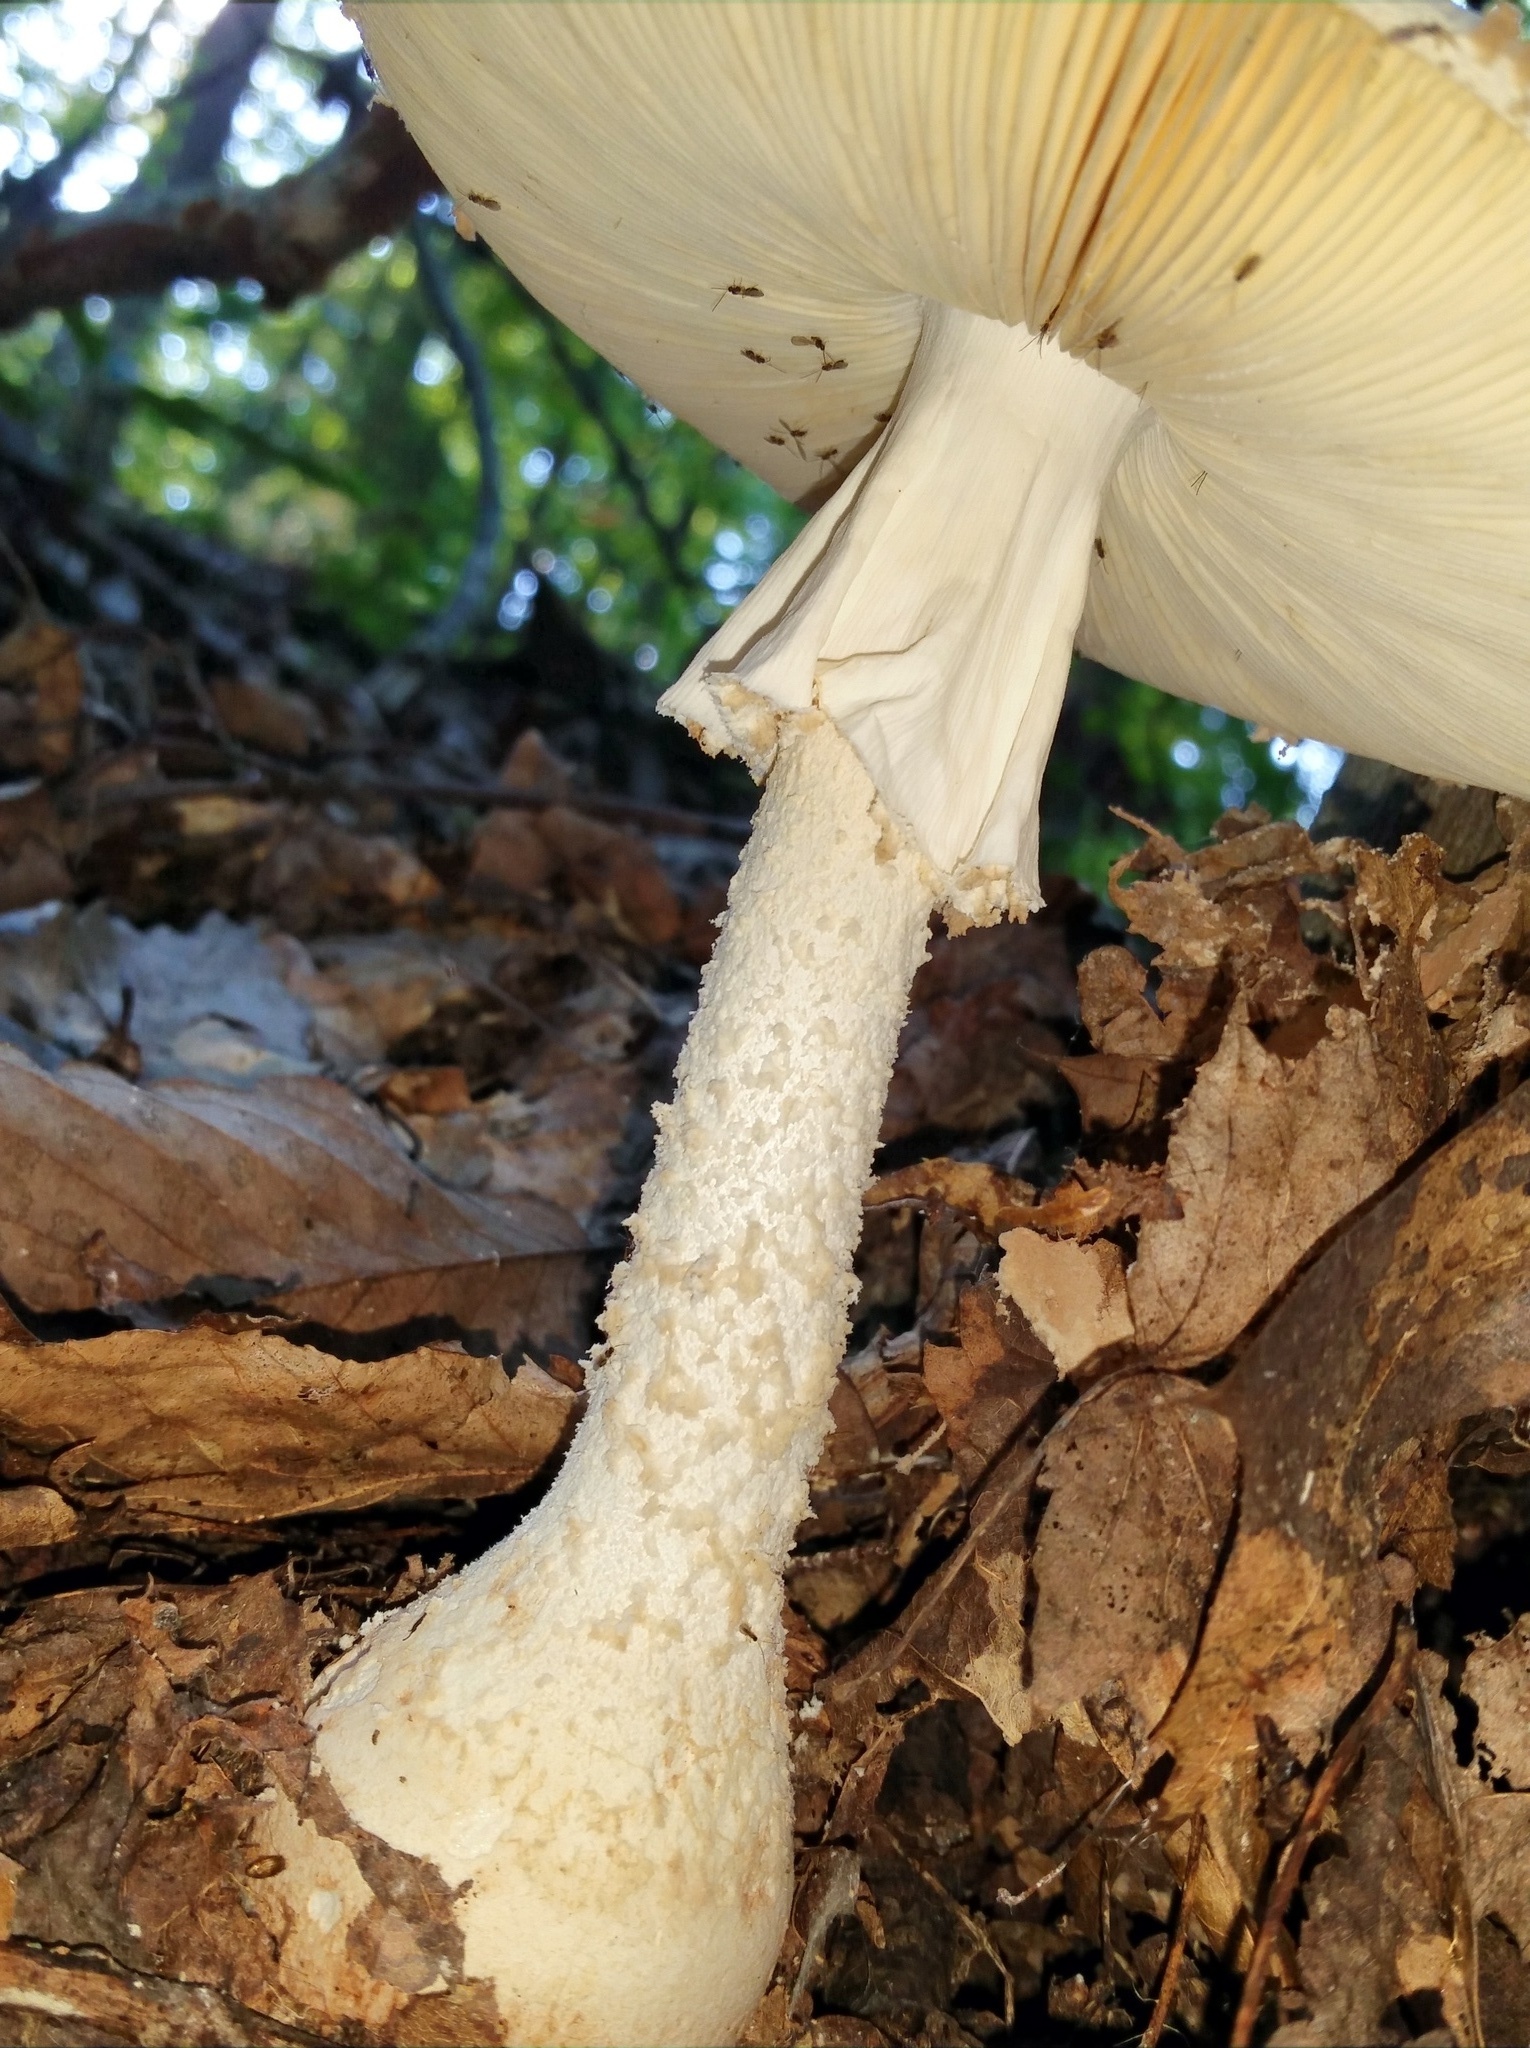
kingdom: Fungi
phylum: Basidiomycota
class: Agaricomycetes
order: Agaricales
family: Amanitaceae
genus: Amanita
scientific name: Amanita daucipes
